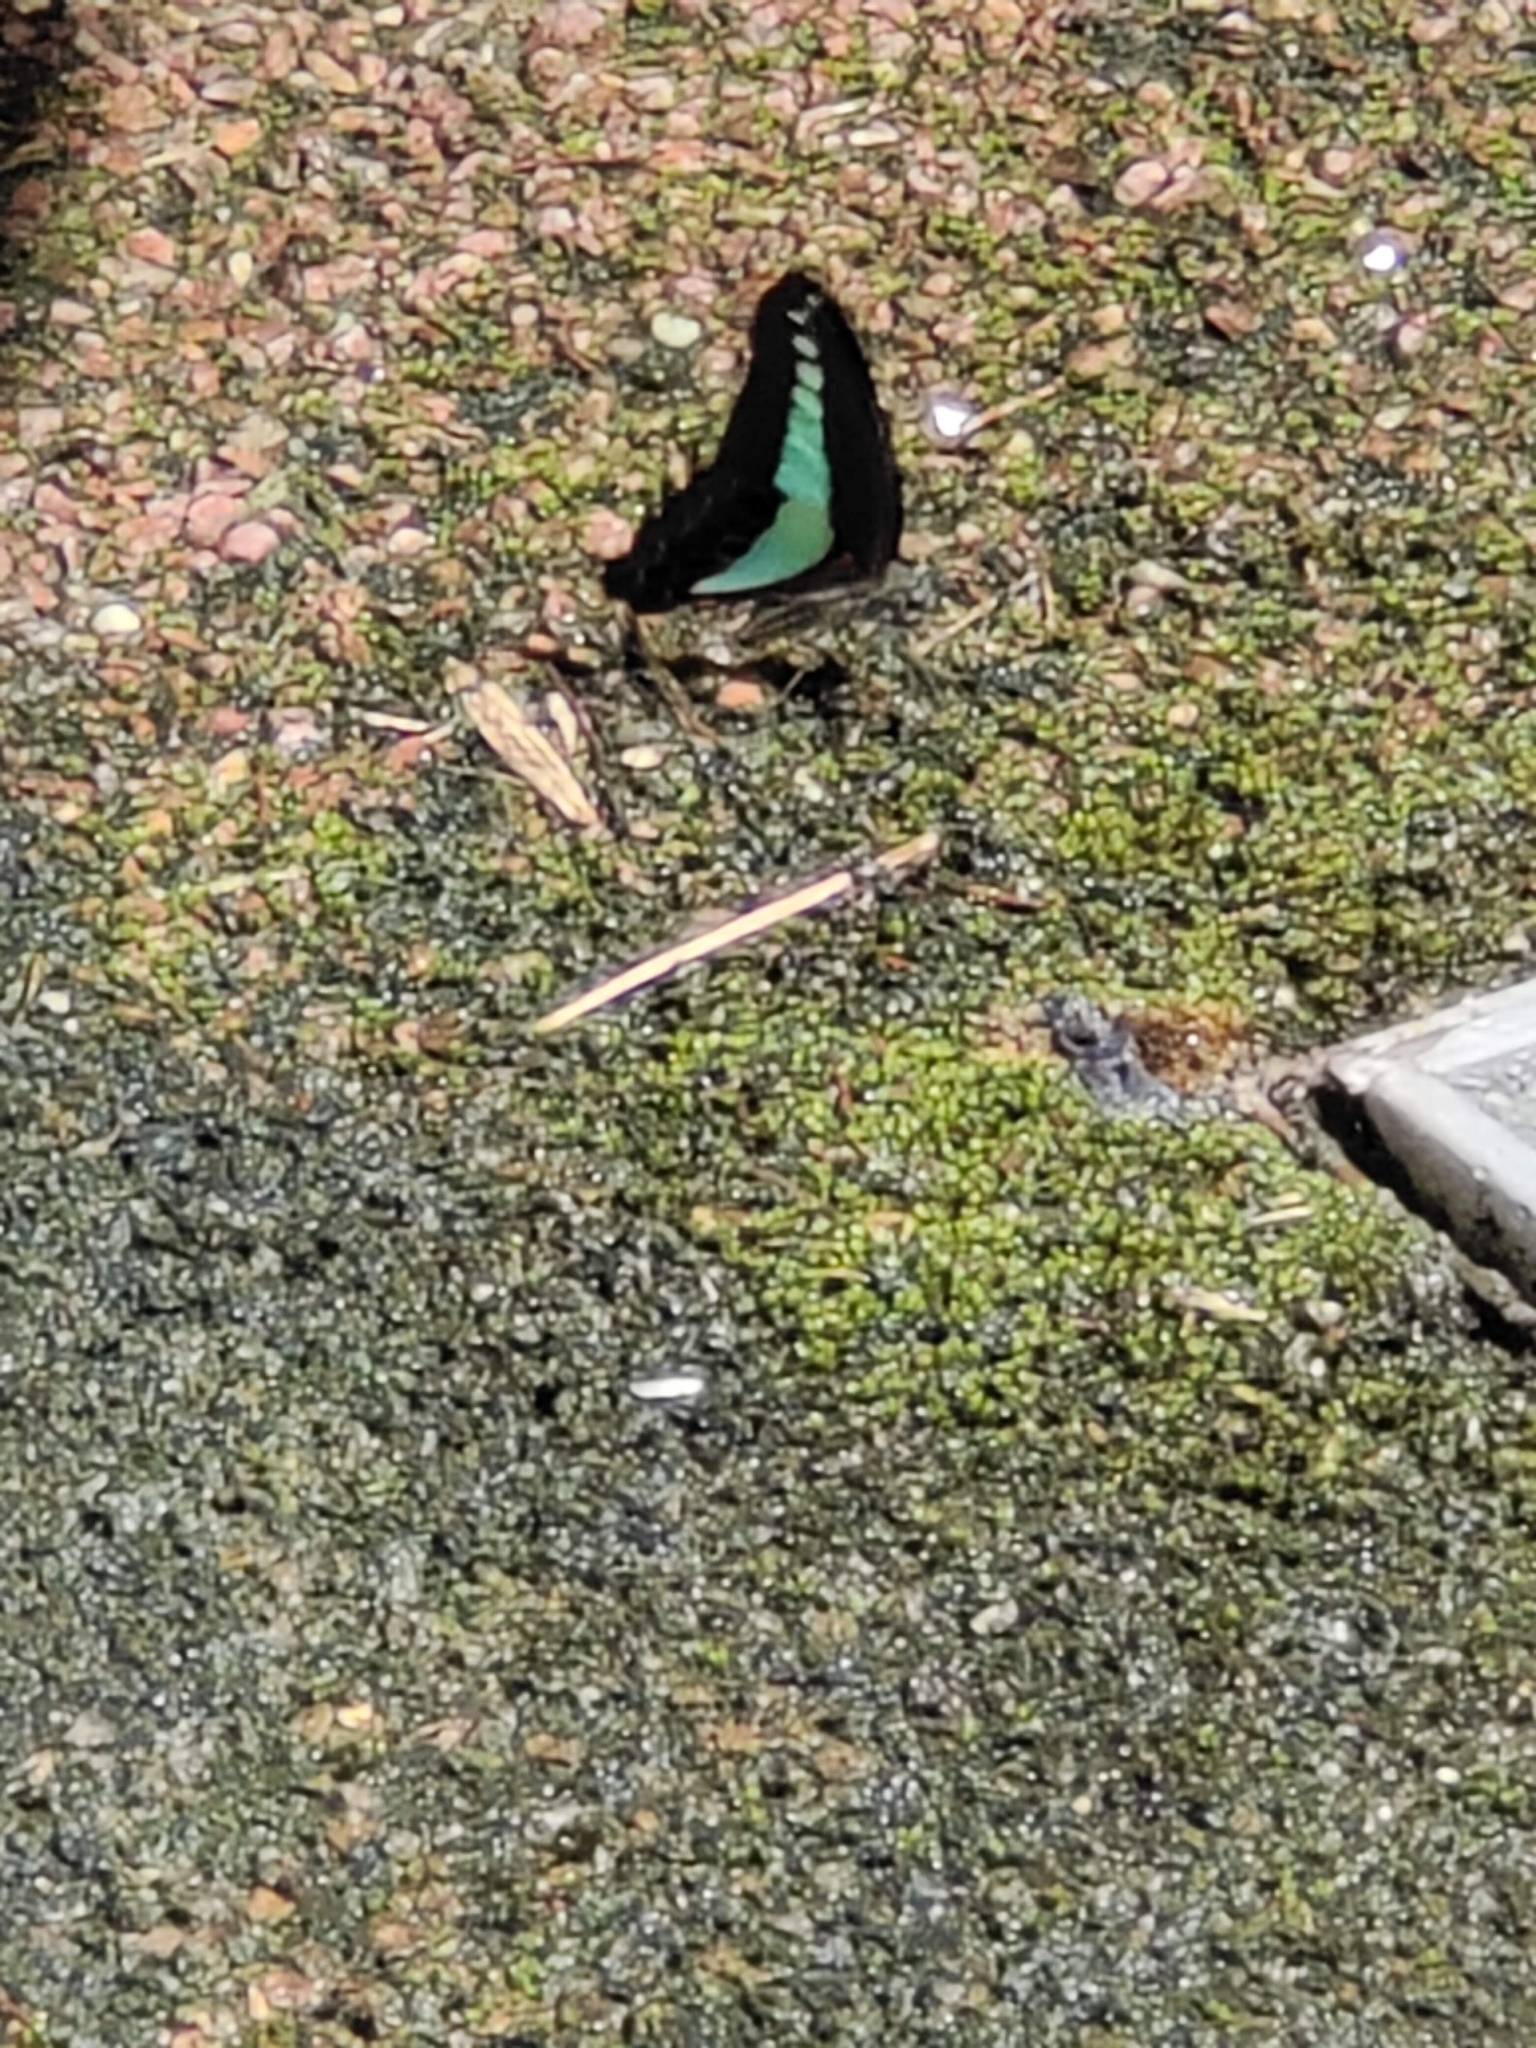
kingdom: Fungi
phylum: Ascomycota
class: Sordariomycetes
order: Microascales
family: Microascaceae
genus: Graphium
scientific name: Graphium sarpedon
